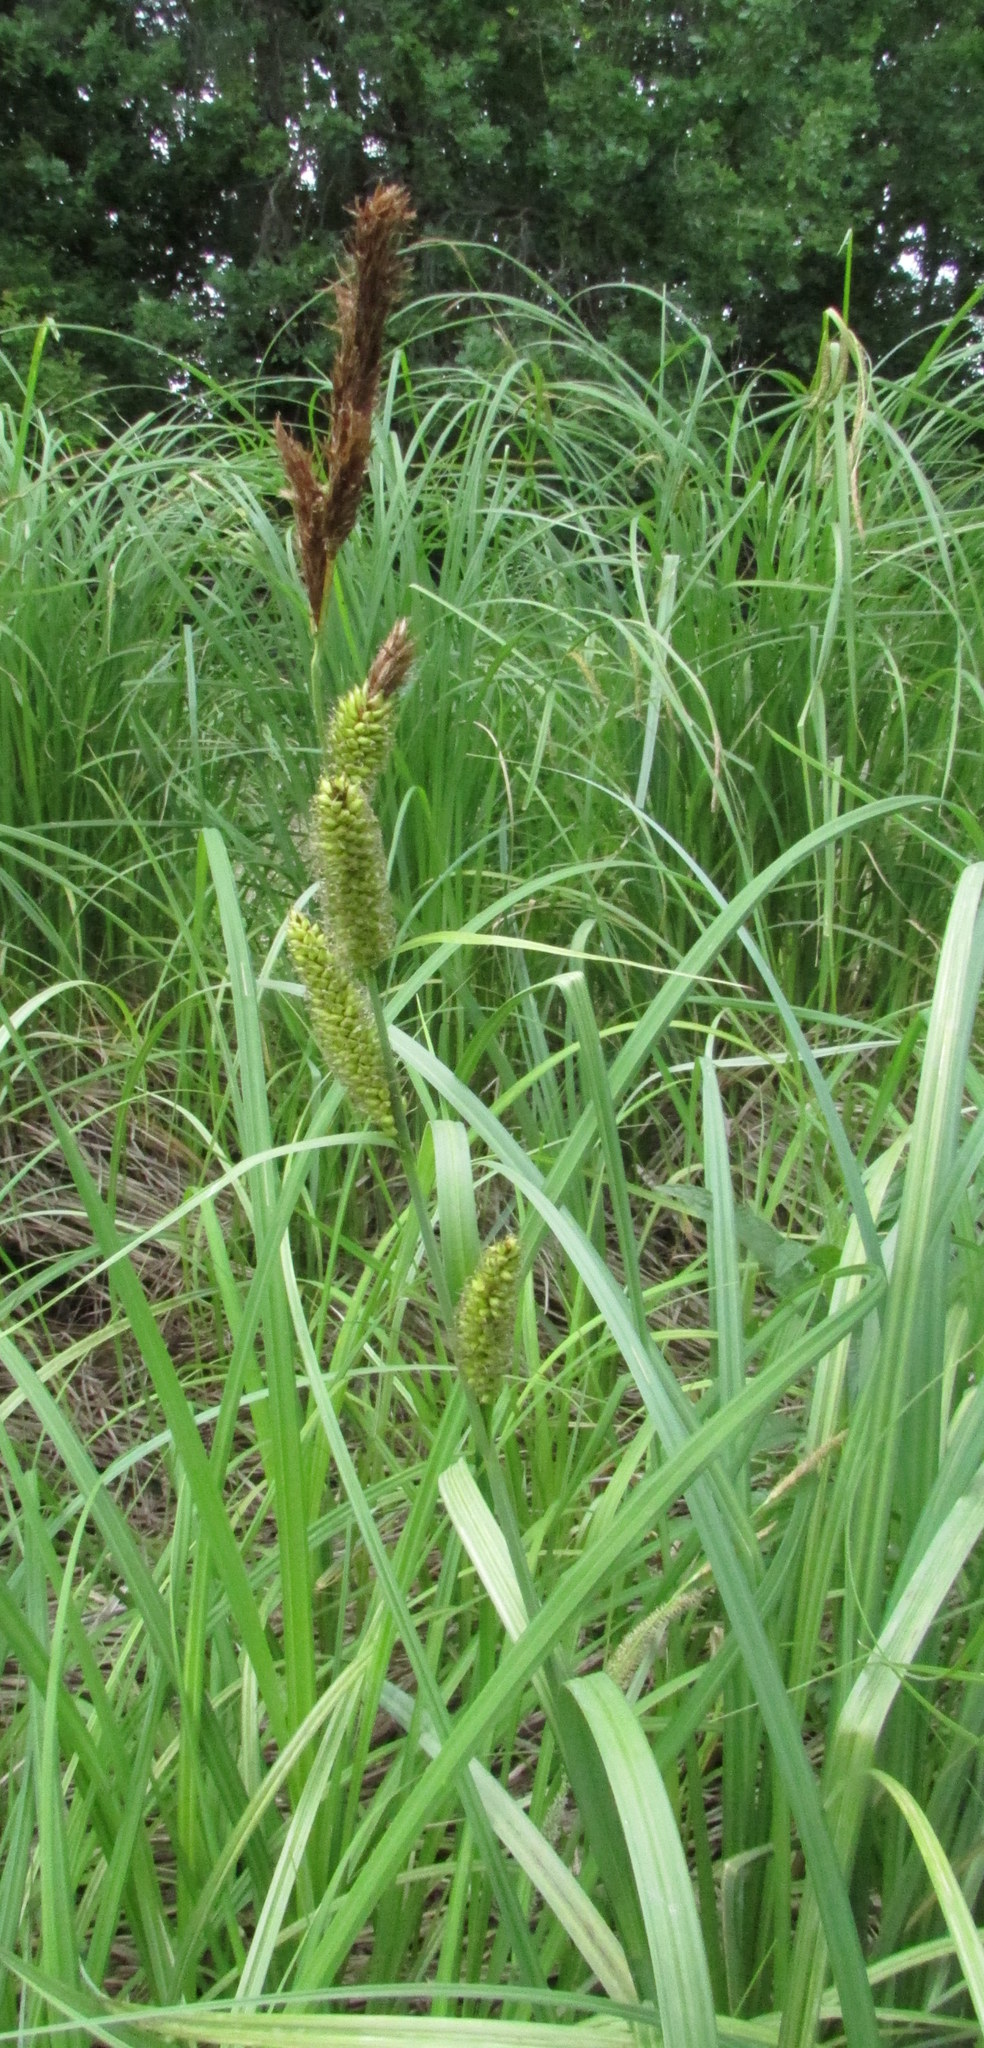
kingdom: Plantae
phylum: Tracheophyta
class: Liliopsida
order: Poales
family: Cyperaceae
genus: Carex
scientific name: Carex riparia
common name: Greater pond-sedge
